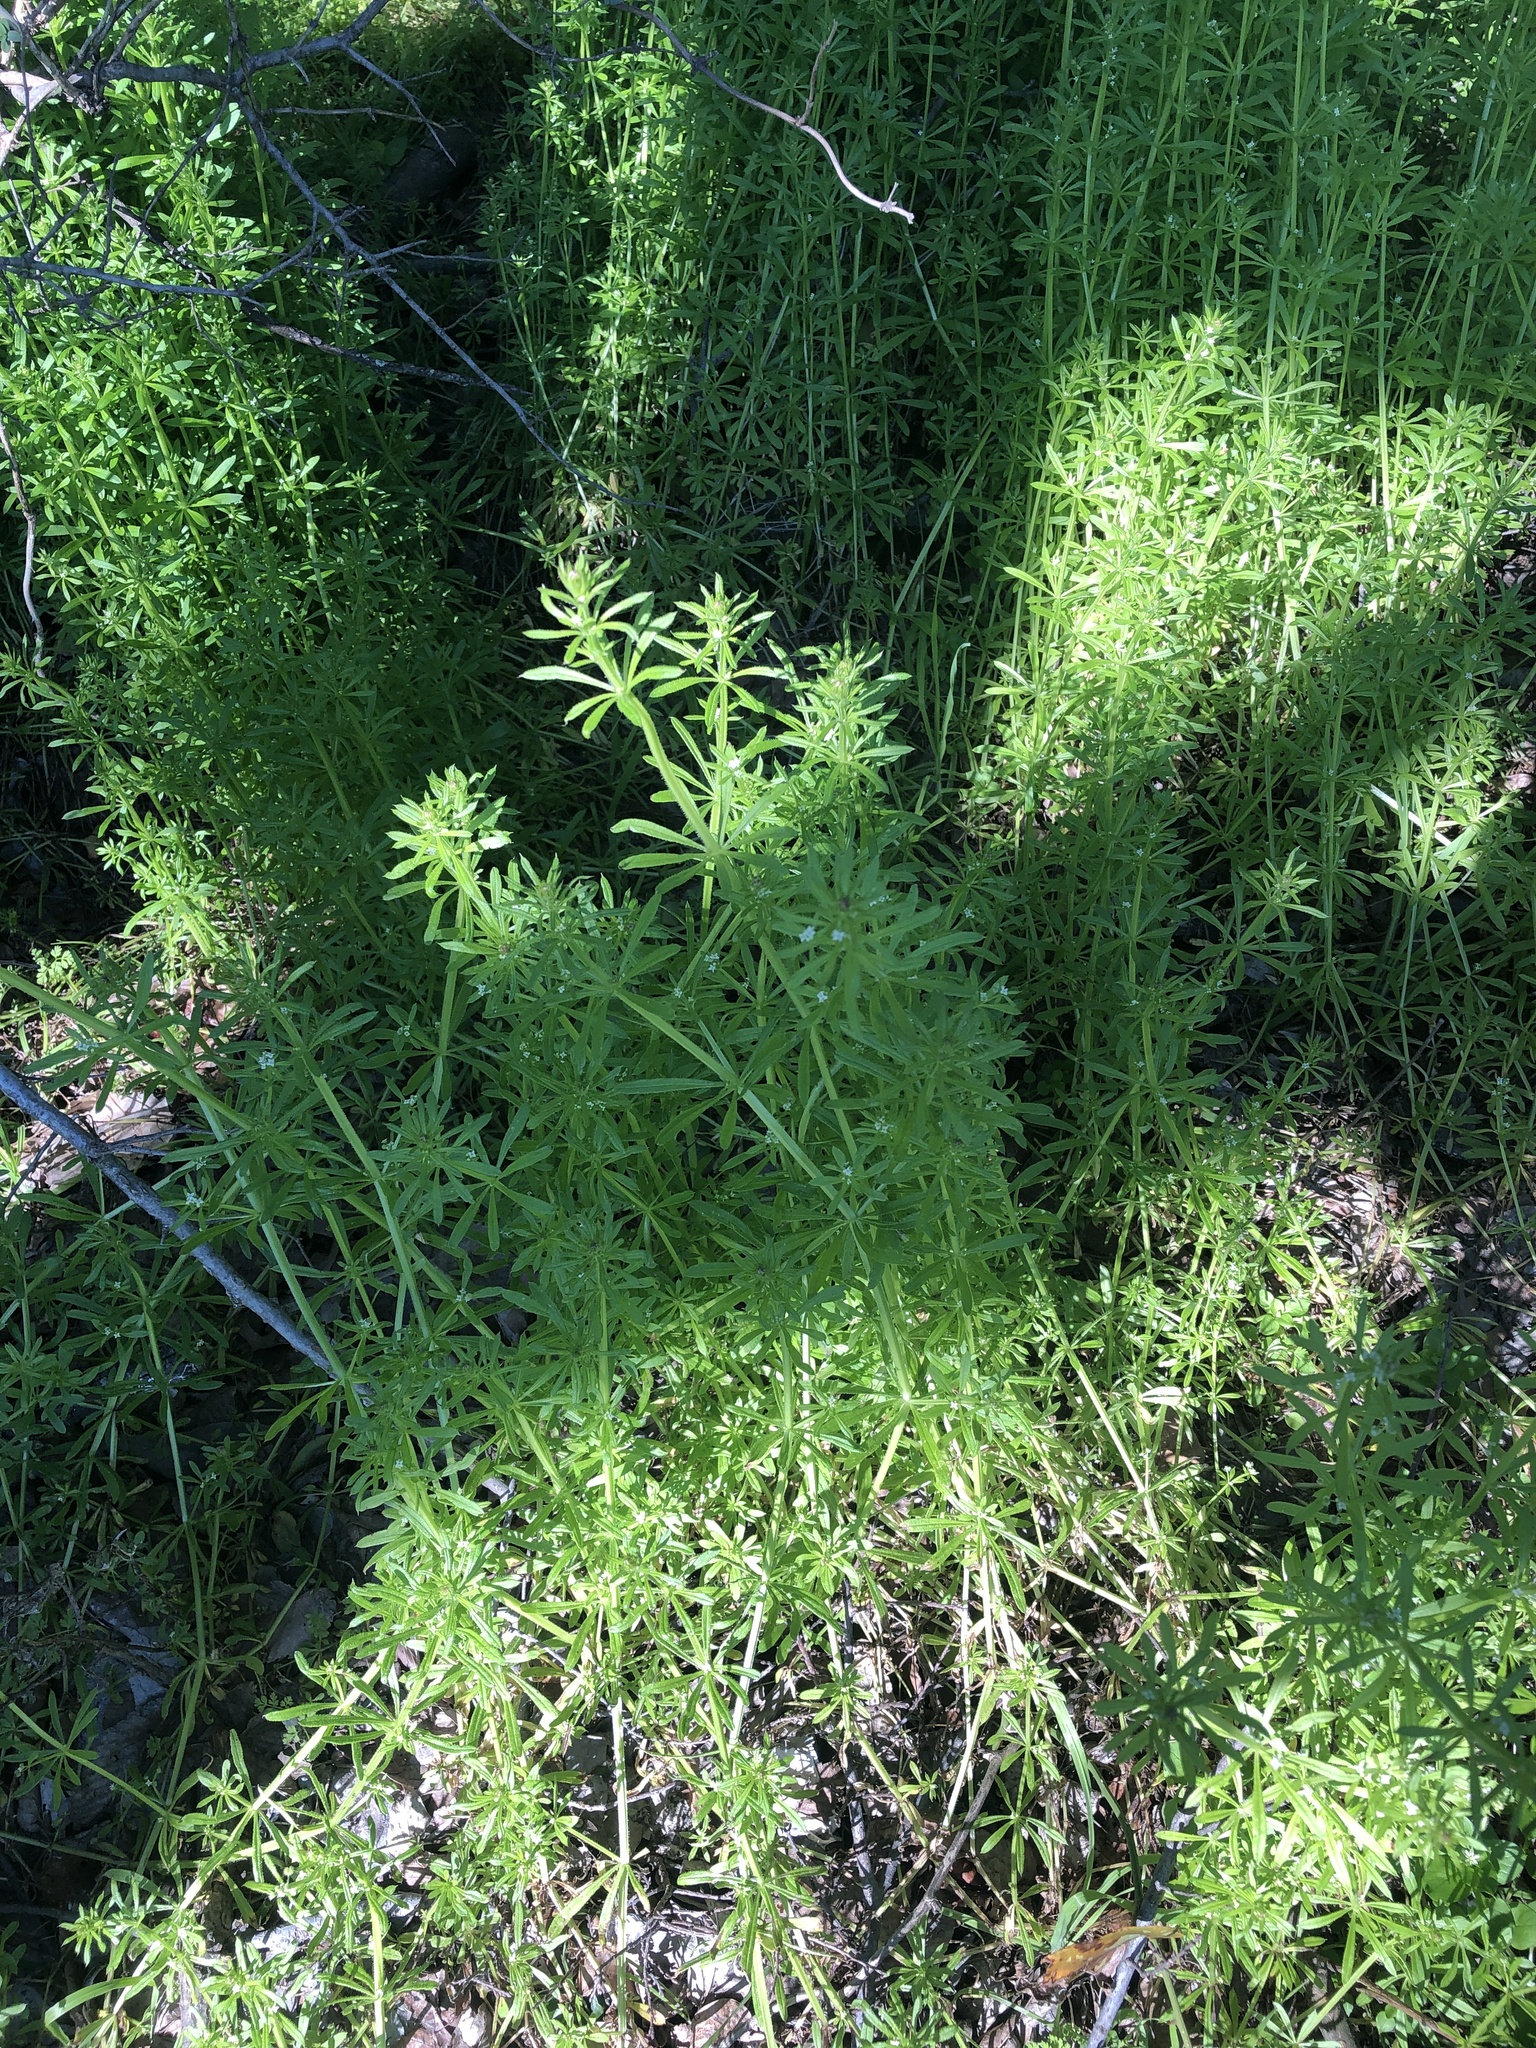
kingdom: Plantae
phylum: Tracheophyta
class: Magnoliopsida
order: Gentianales
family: Rubiaceae
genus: Galium
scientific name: Galium aparine
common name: Cleavers
